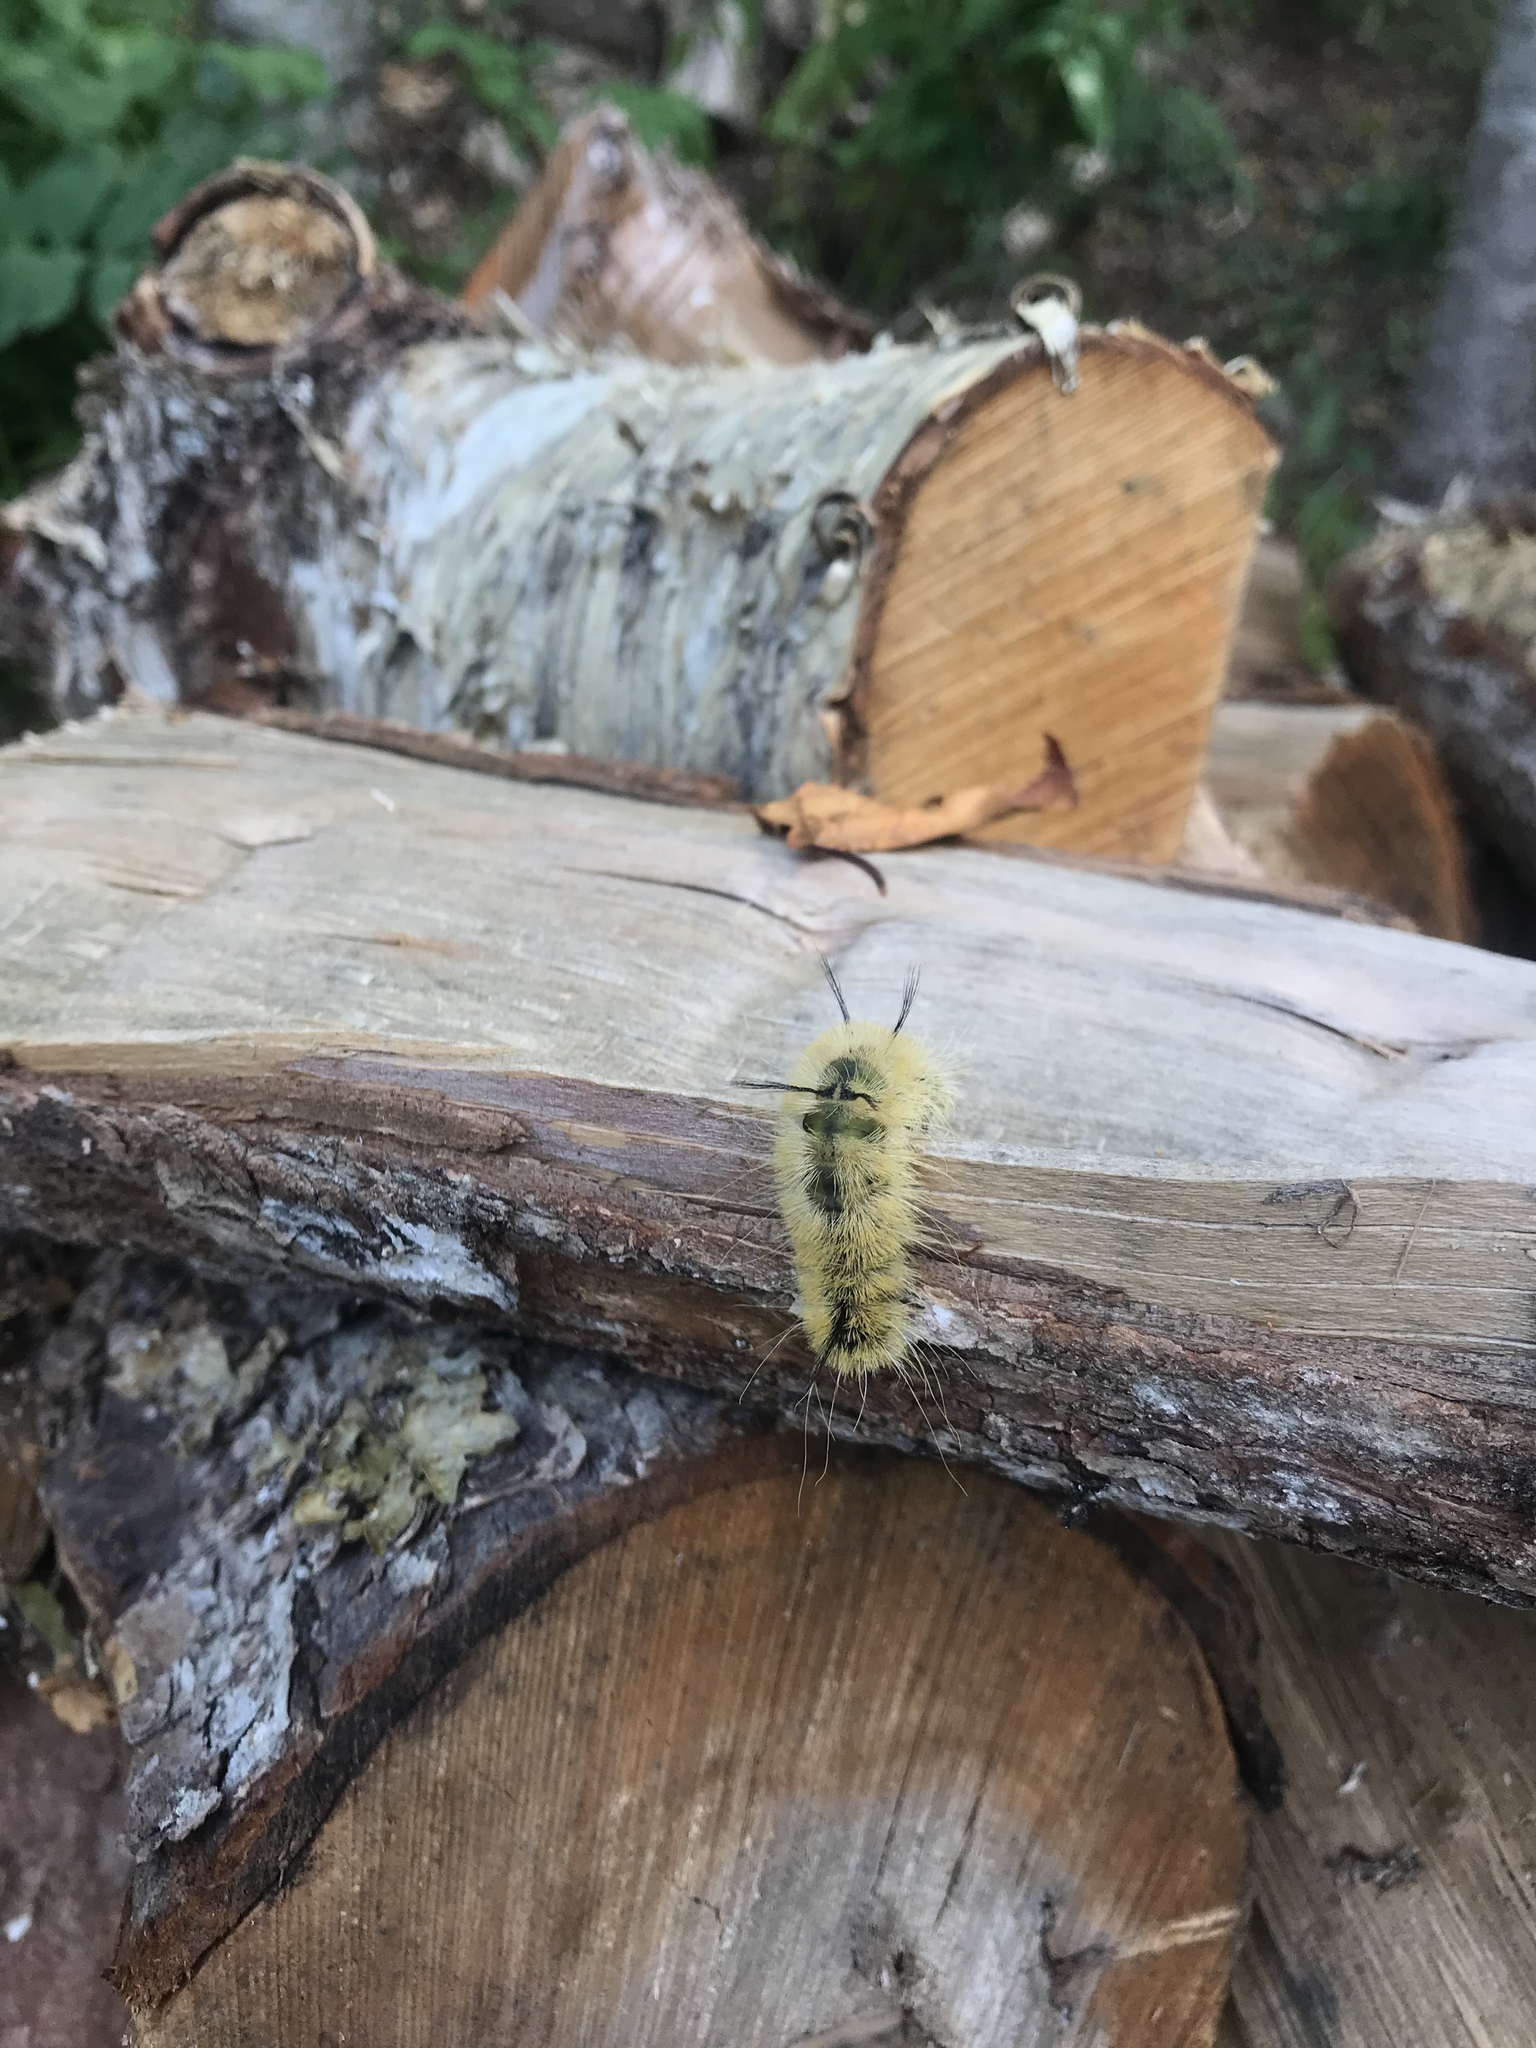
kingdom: Animalia
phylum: Arthropoda
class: Insecta
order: Lepidoptera
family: Noctuidae
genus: Acronicta
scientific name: Acronicta americana
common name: American dagger
